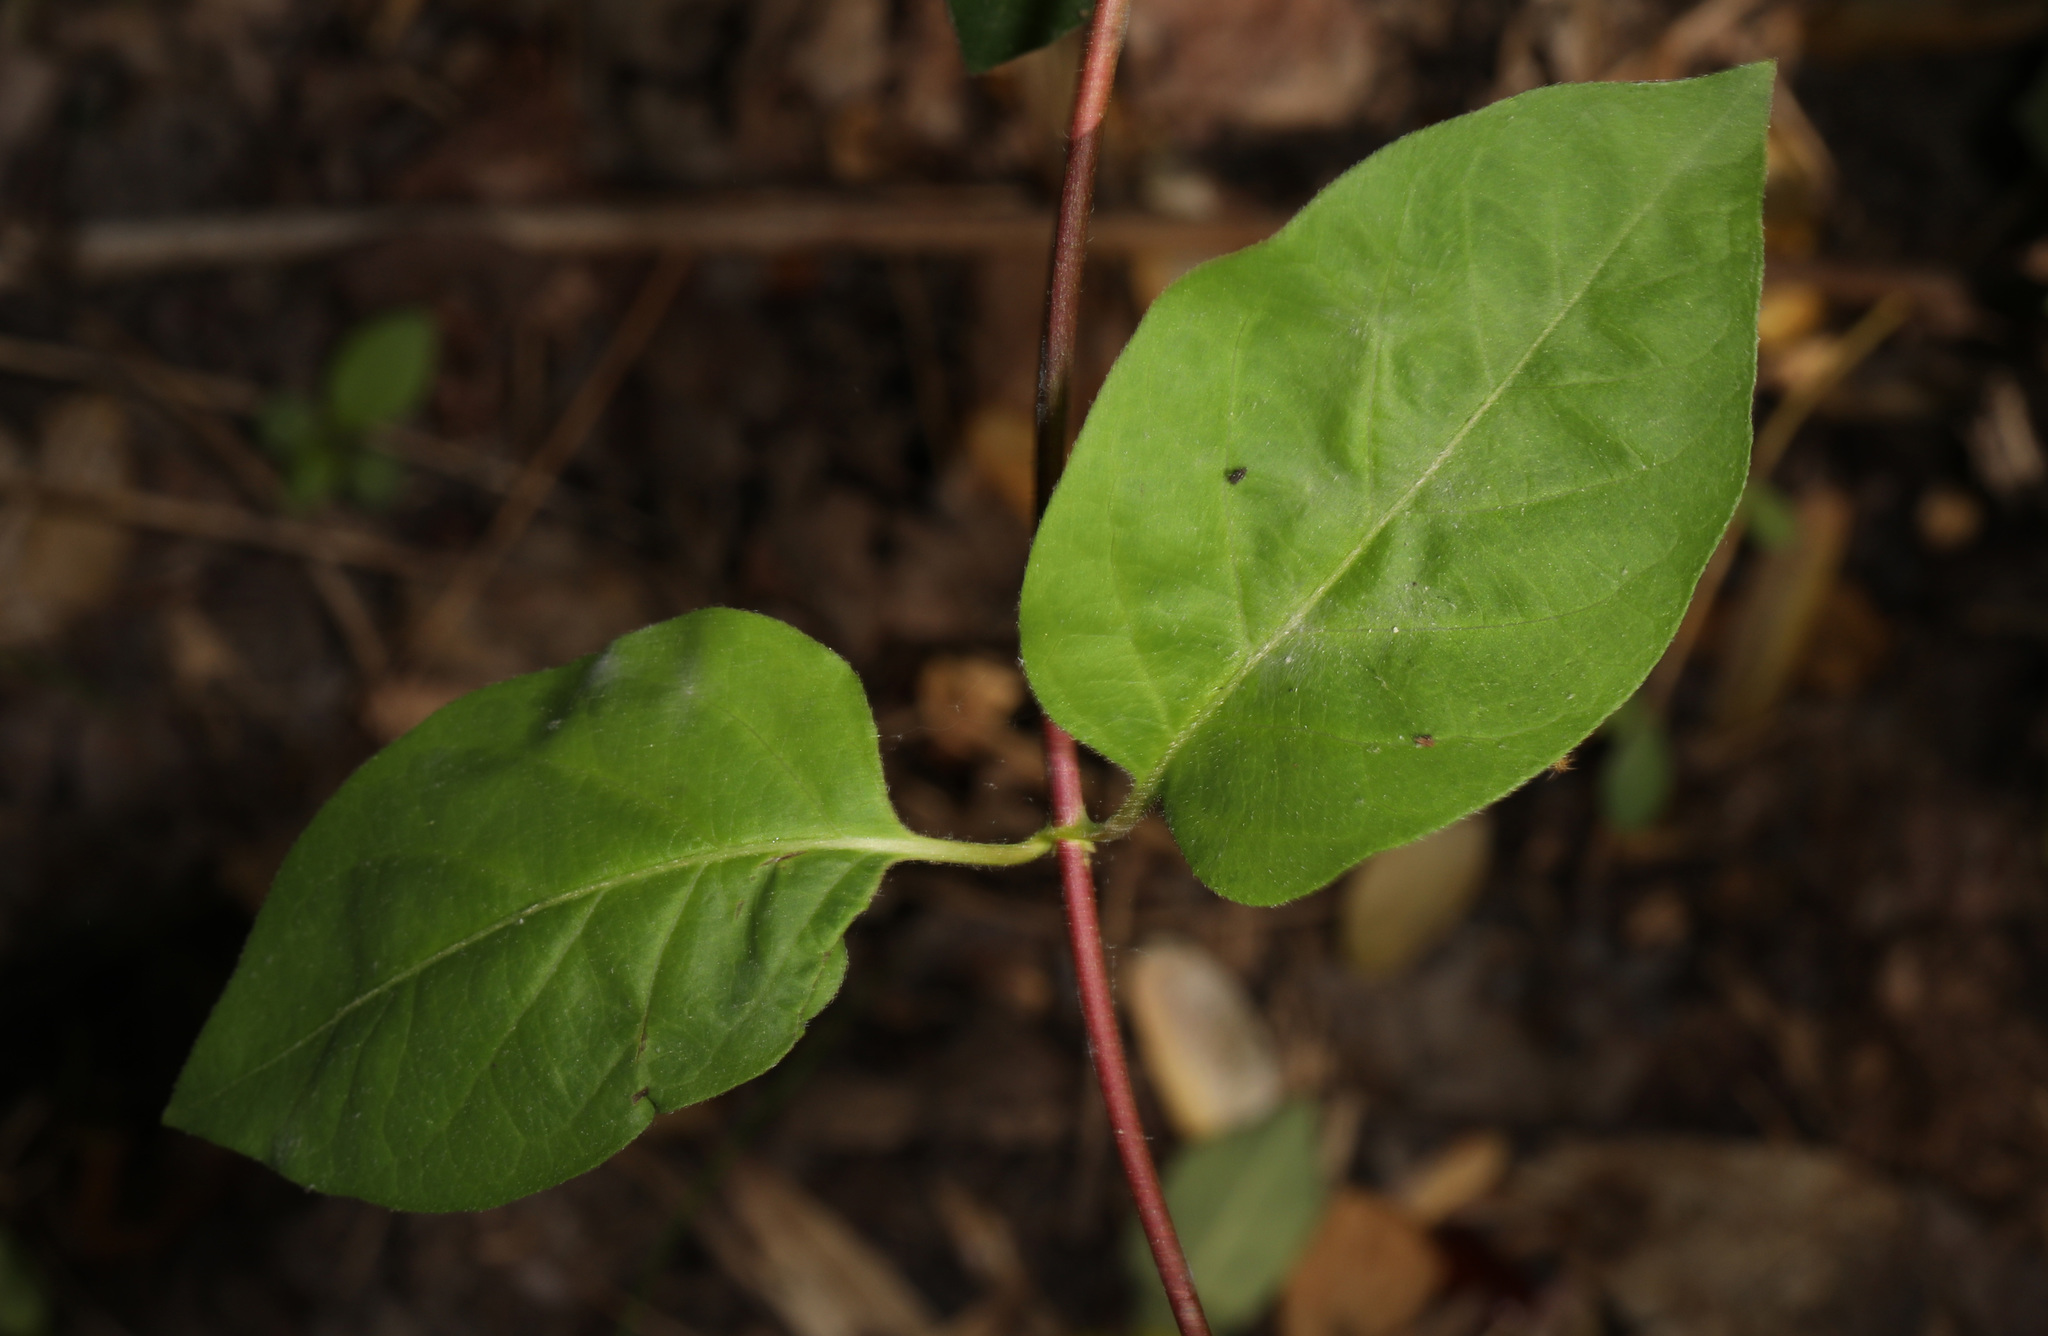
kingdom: Plantae
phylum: Tracheophyta
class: Magnoliopsida
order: Dipsacales
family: Caprifoliaceae
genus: Lonicera
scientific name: Lonicera japonica
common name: Japanese honeysuckle
